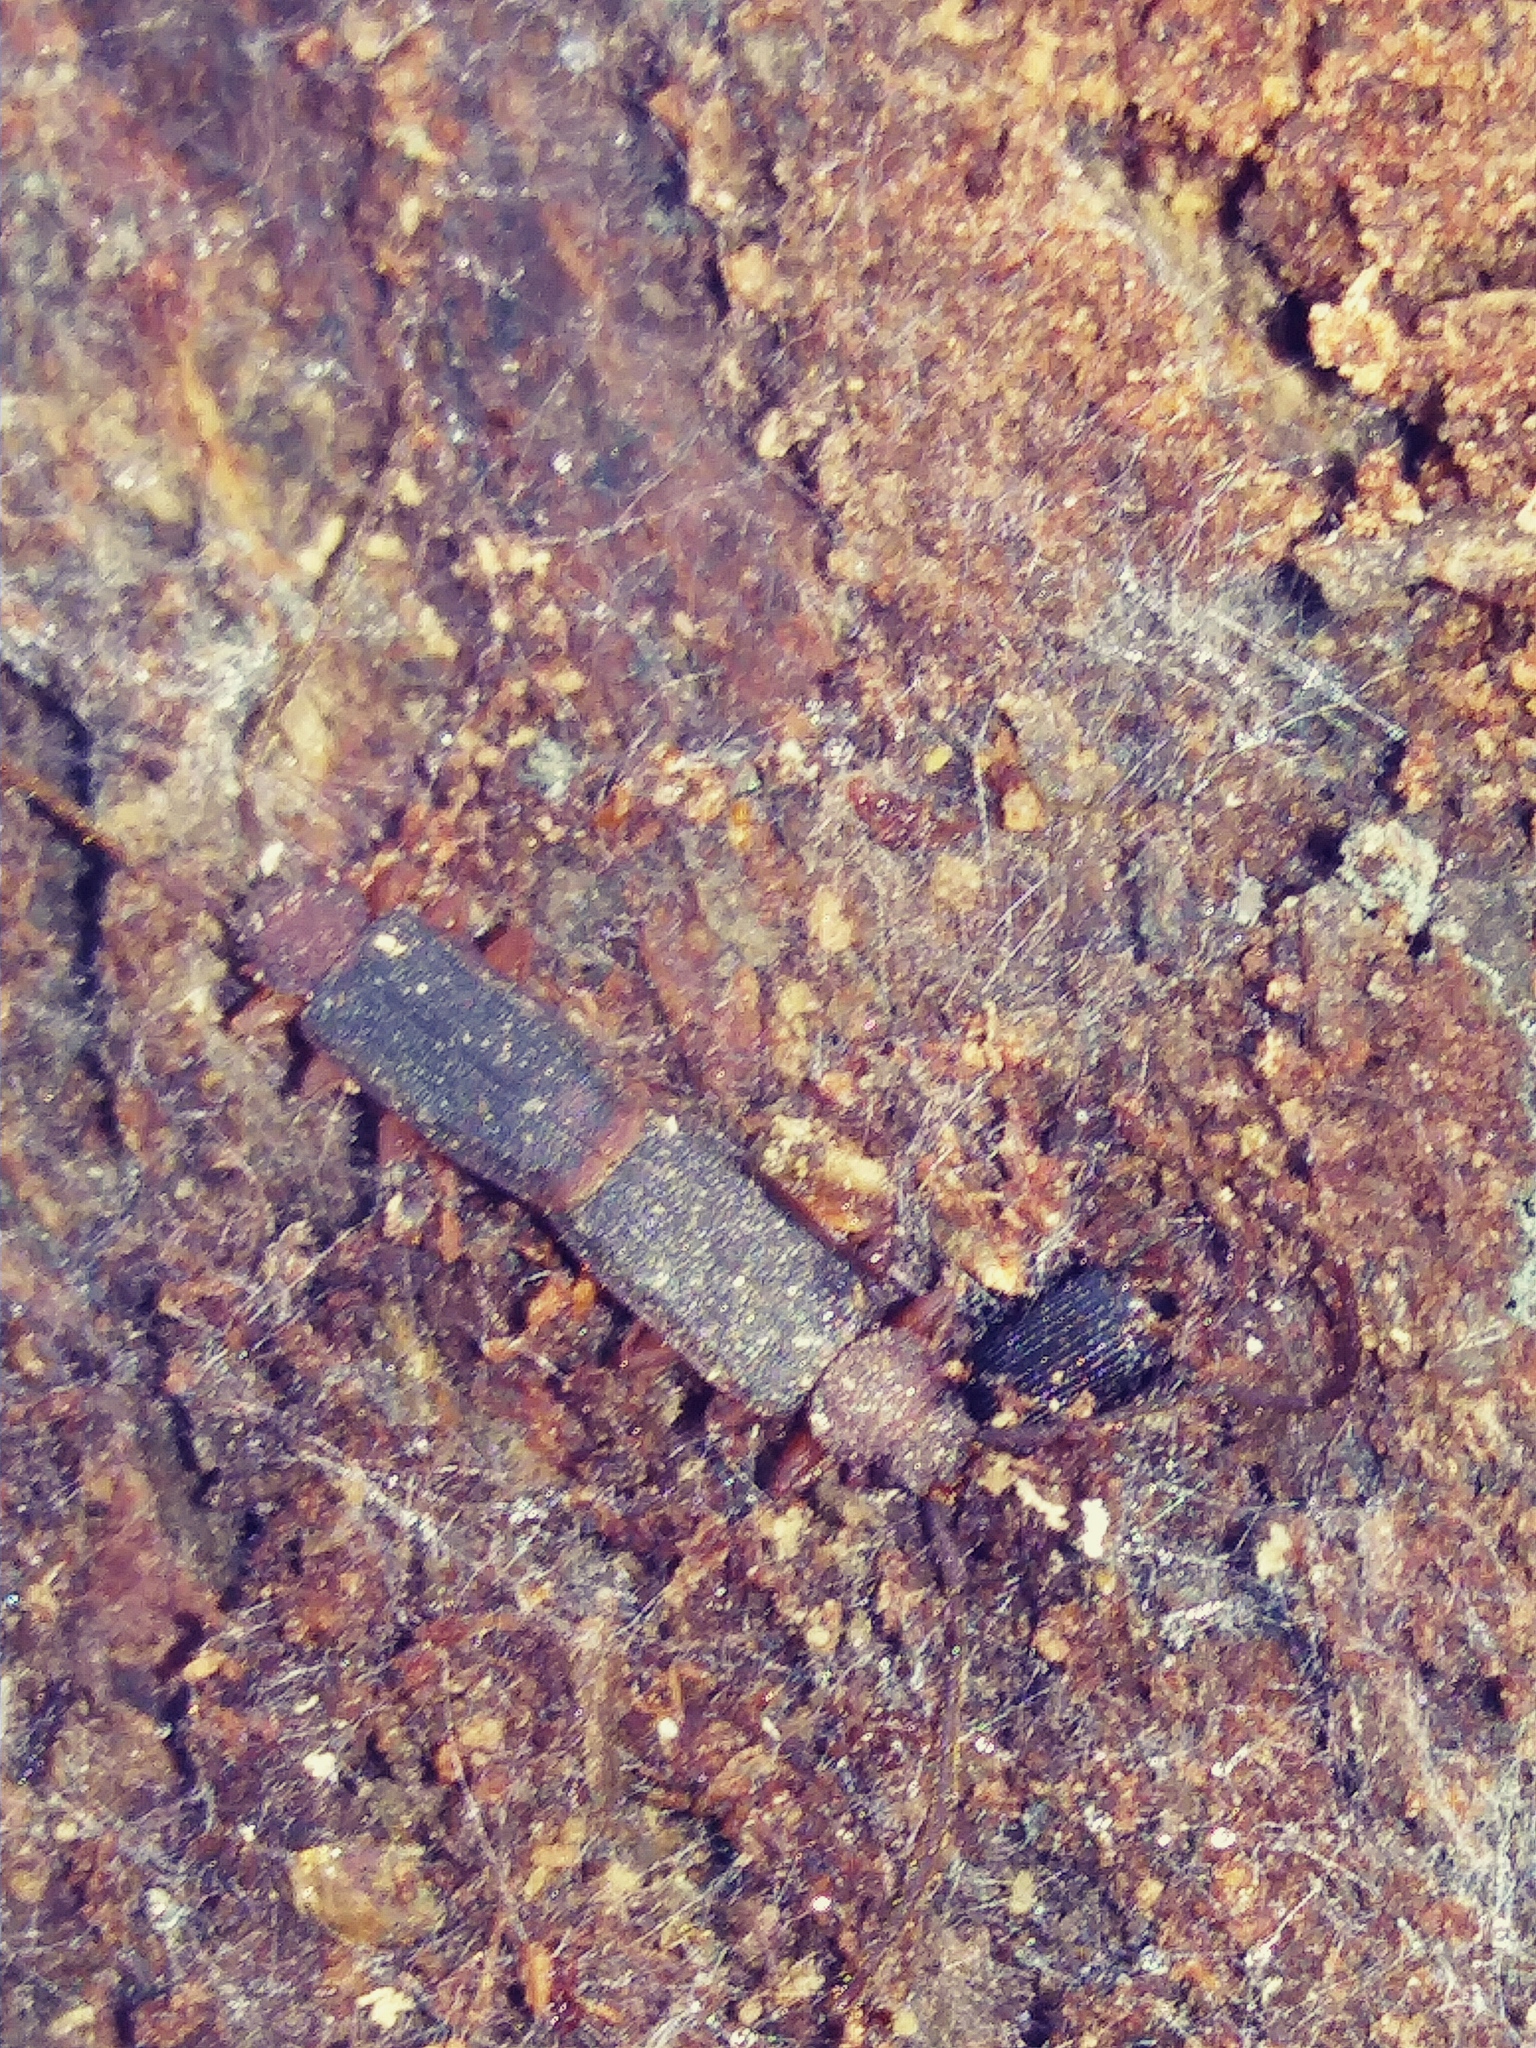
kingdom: Animalia
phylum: Arthropoda
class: Insecta
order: Coleoptera
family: Silvanidae
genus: Uleiota
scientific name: Uleiota dubia
